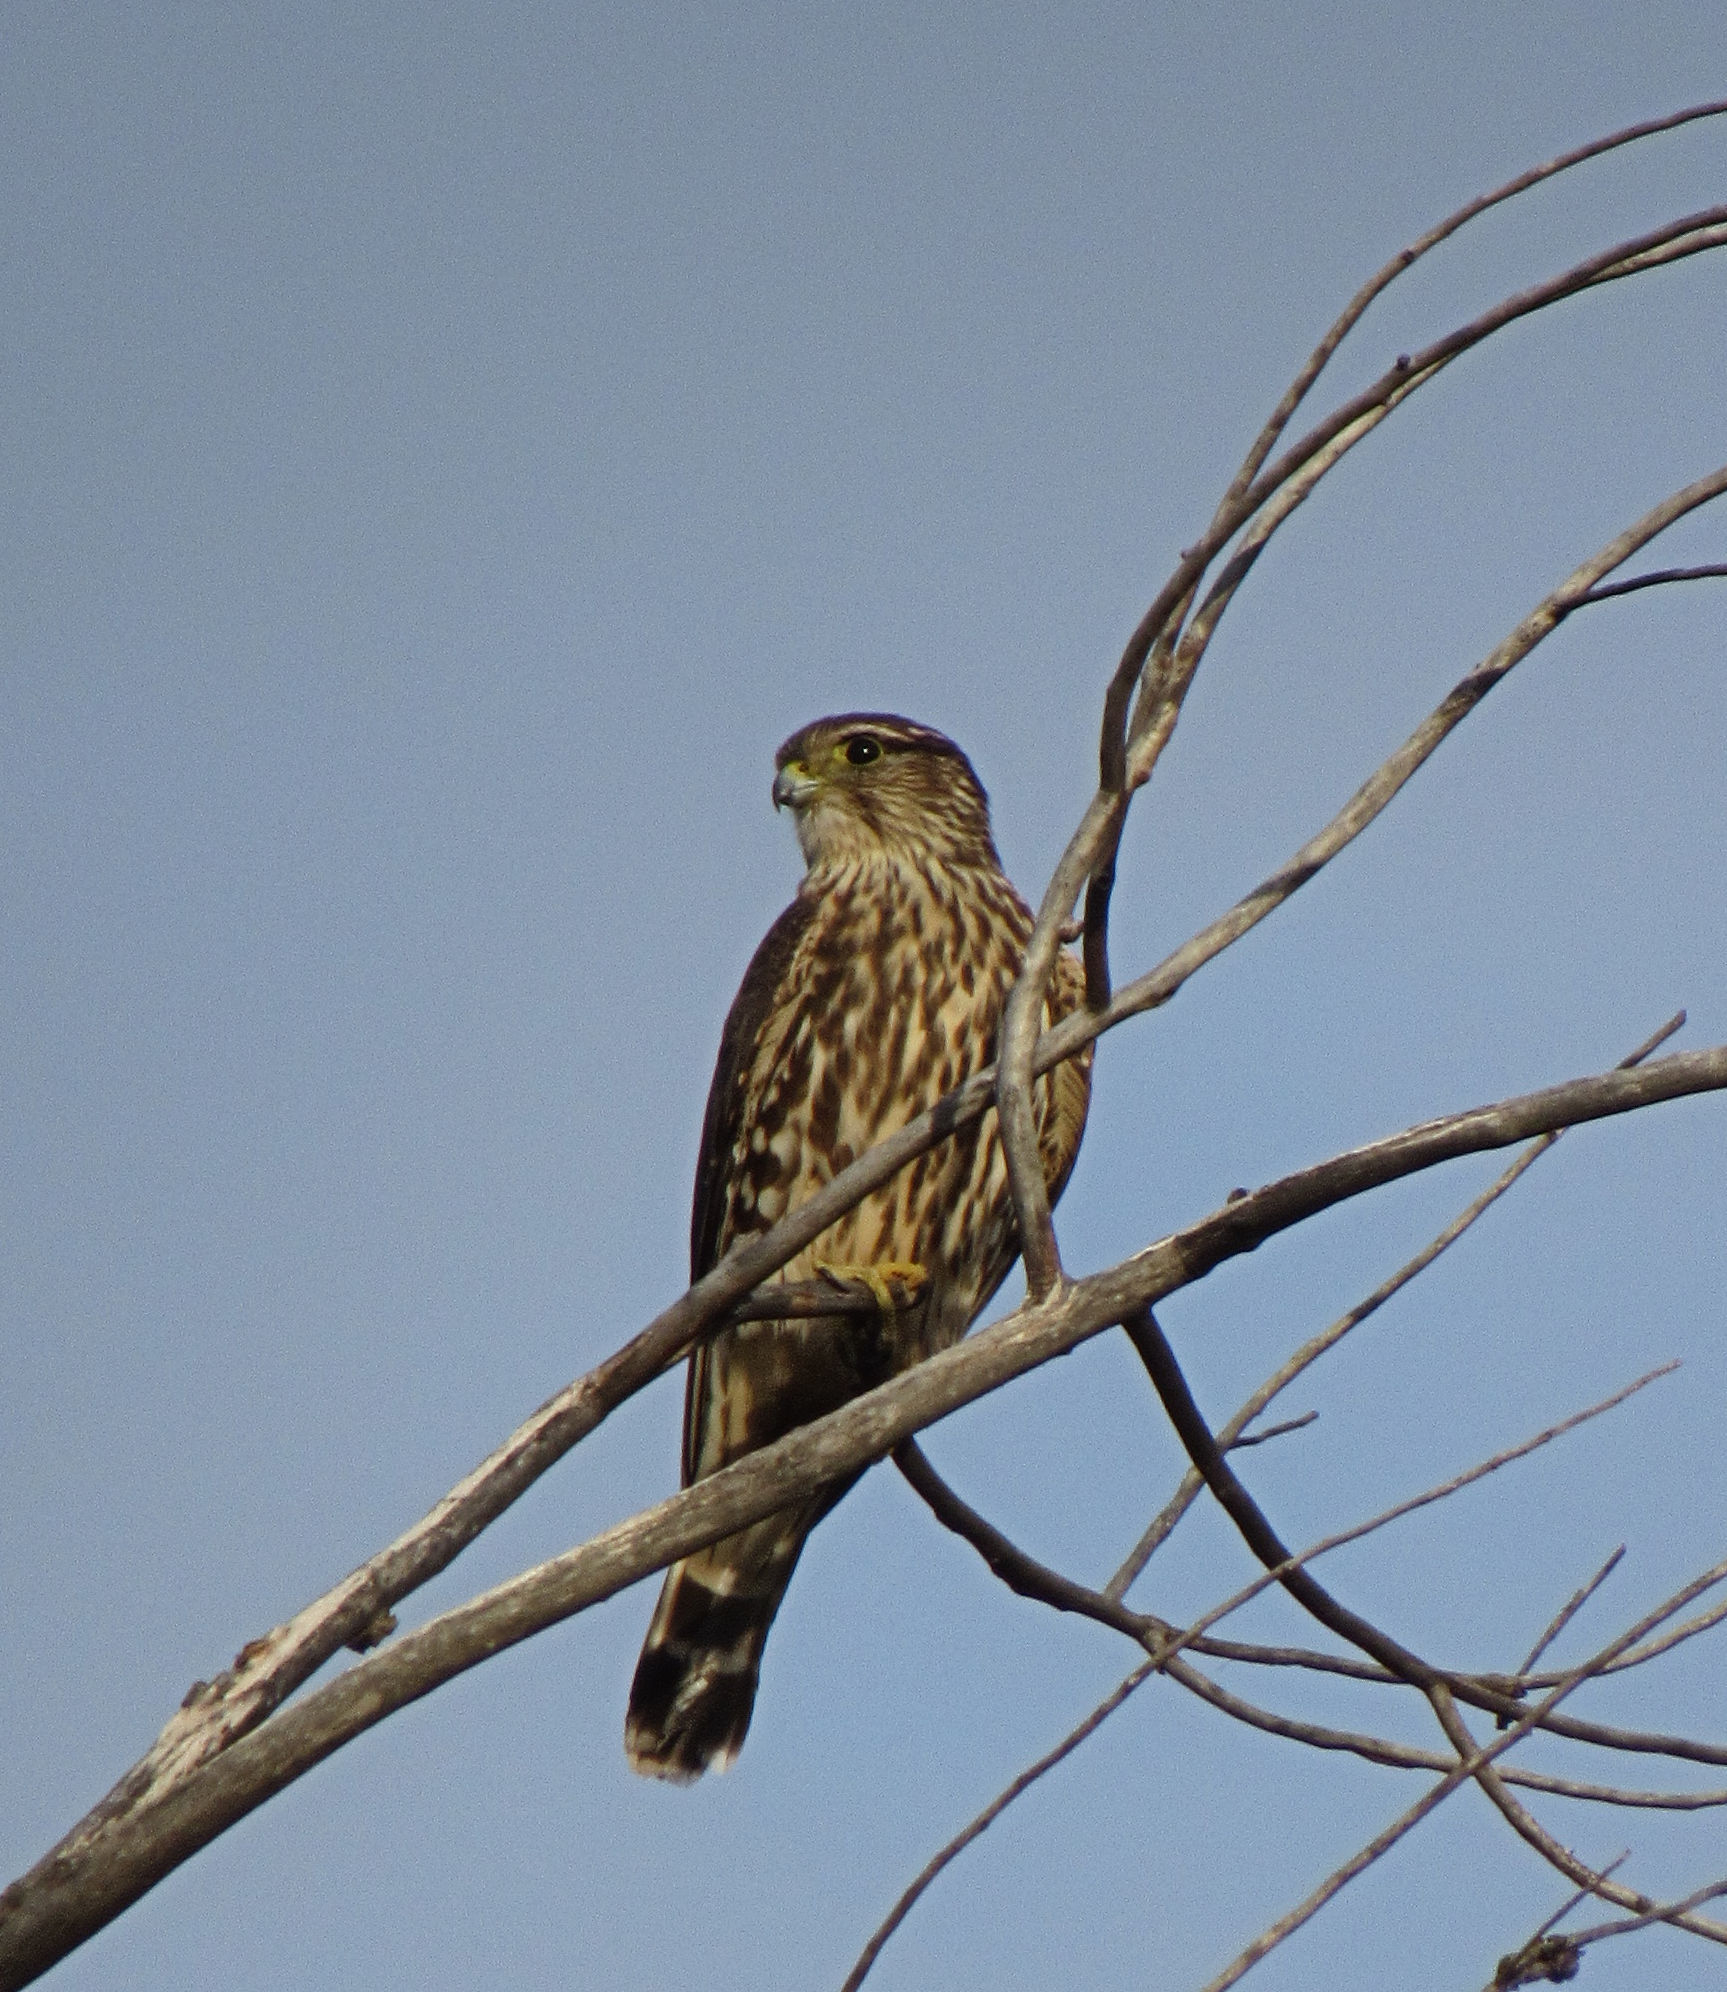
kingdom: Animalia
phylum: Chordata
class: Aves
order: Falconiformes
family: Falconidae
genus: Falco
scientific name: Falco columbarius
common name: Merlin
